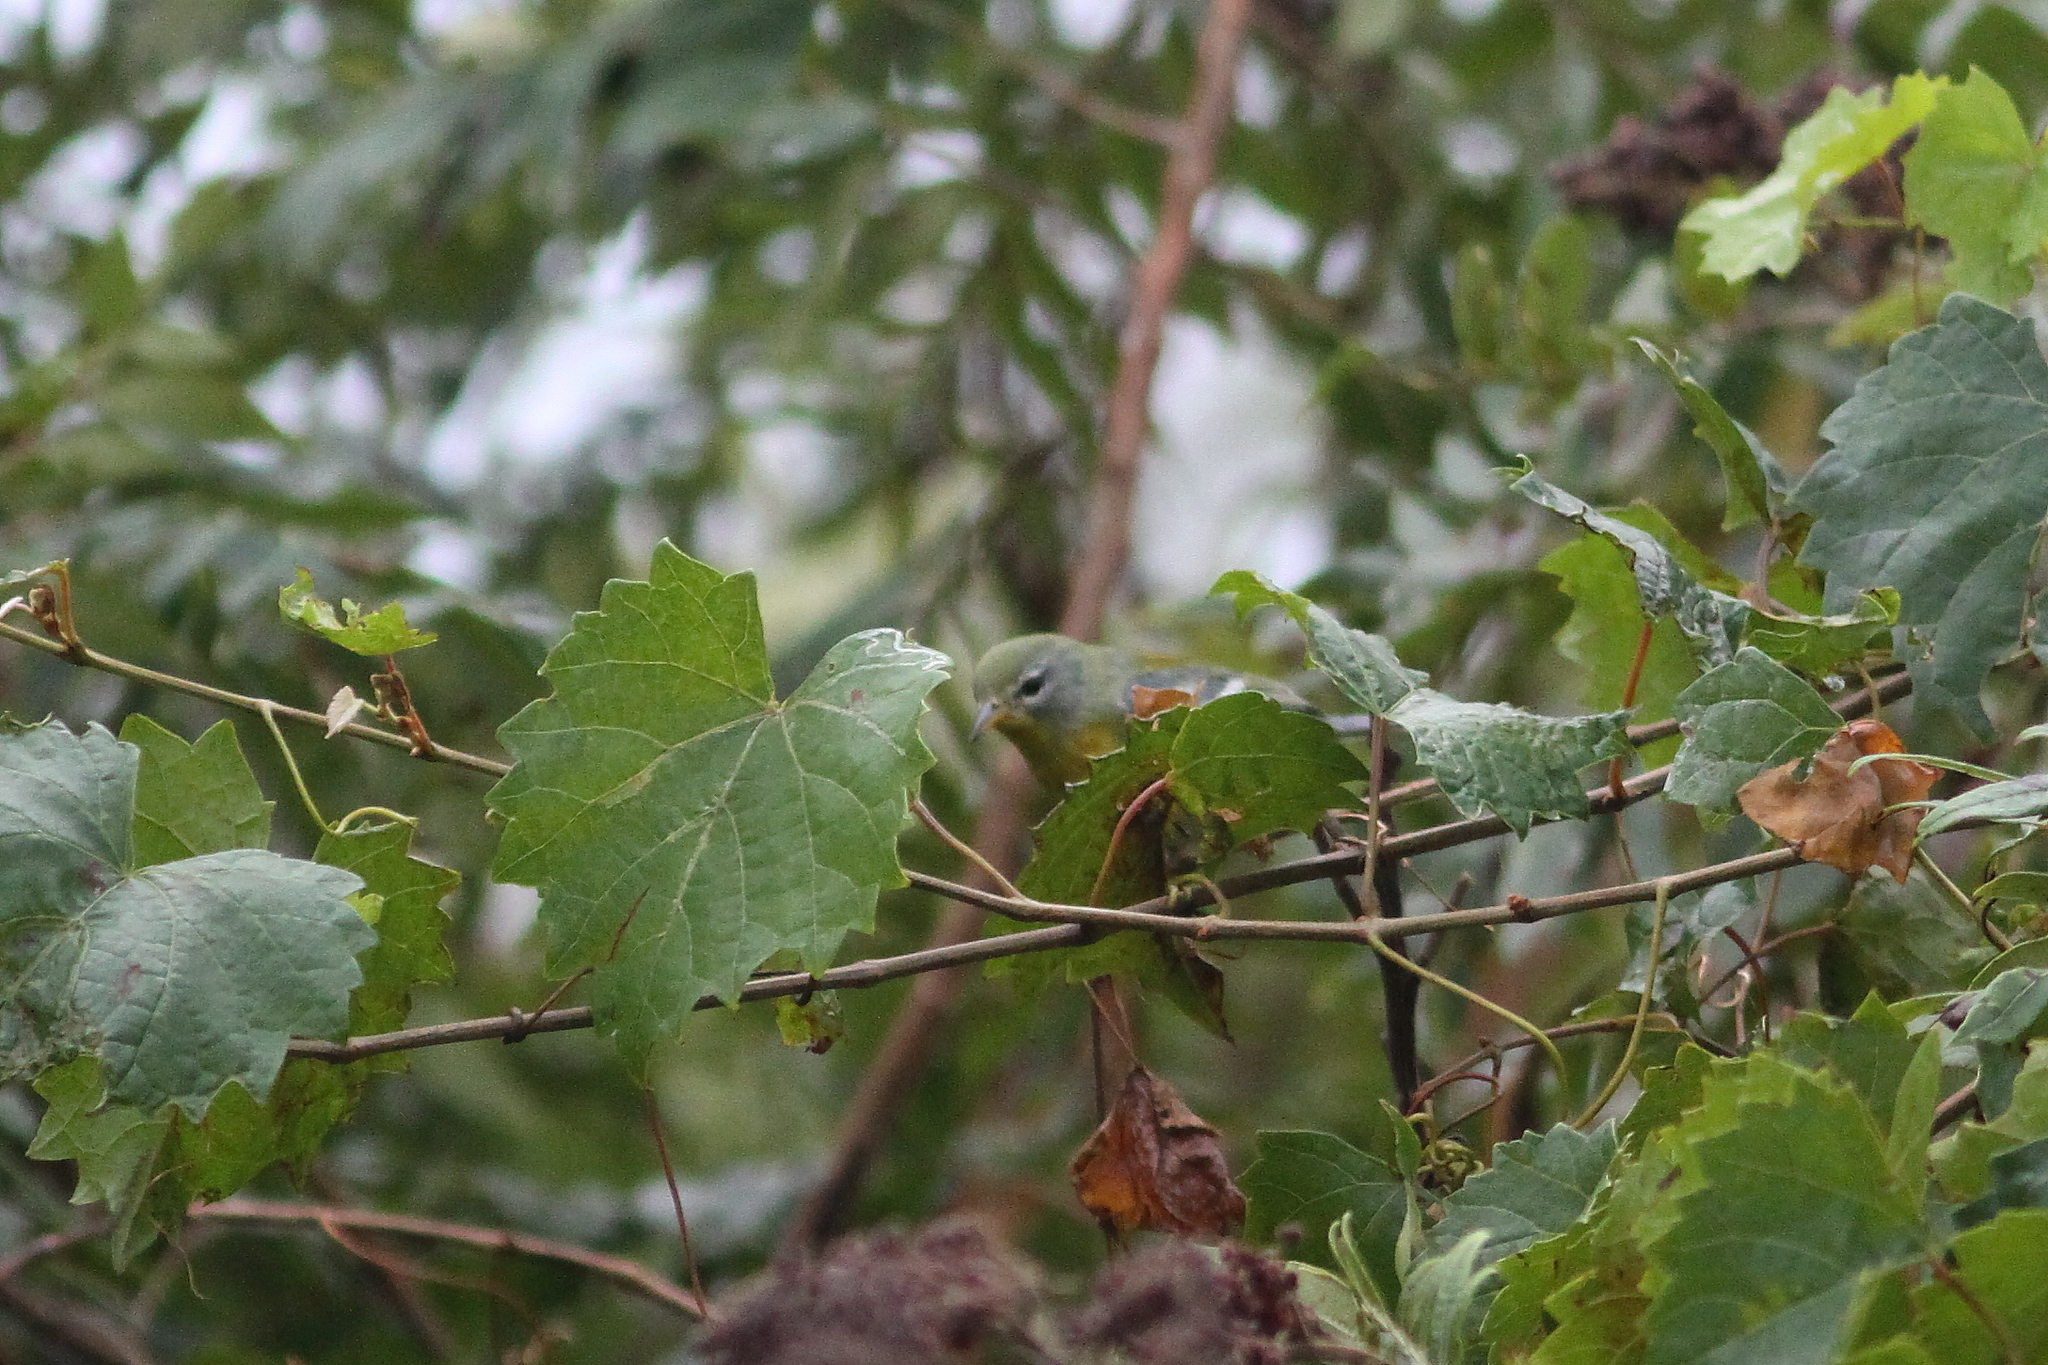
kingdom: Animalia
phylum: Chordata
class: Aves
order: Passeriformes
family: Parulidae
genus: Setophaga
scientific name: Setophaga americana
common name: Northern parula
